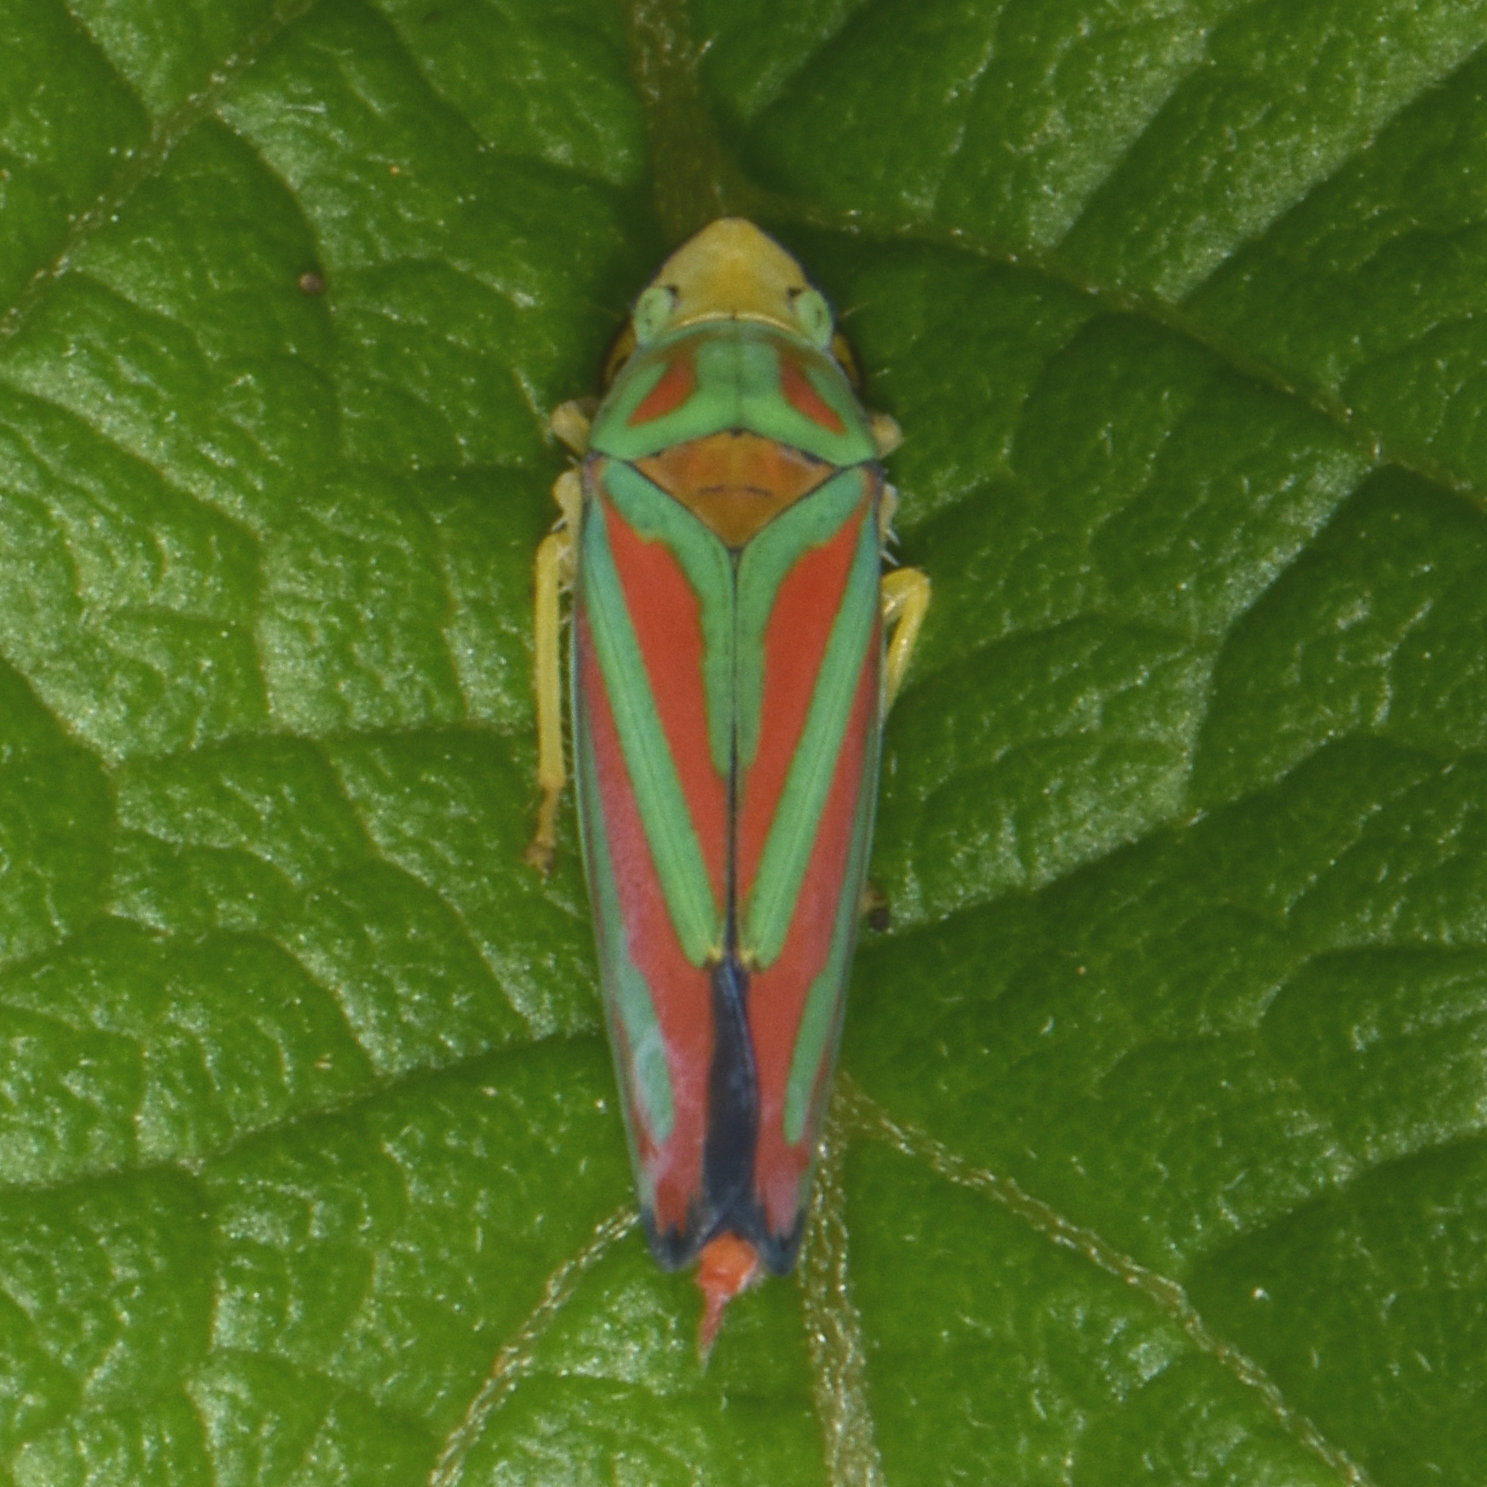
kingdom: Animalia
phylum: Arthropoda
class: Insecta
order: Hemiptera
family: Cicadellidae
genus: Graphocephala
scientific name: Graphocephala coccinea
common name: Candy-striped leafhopper
